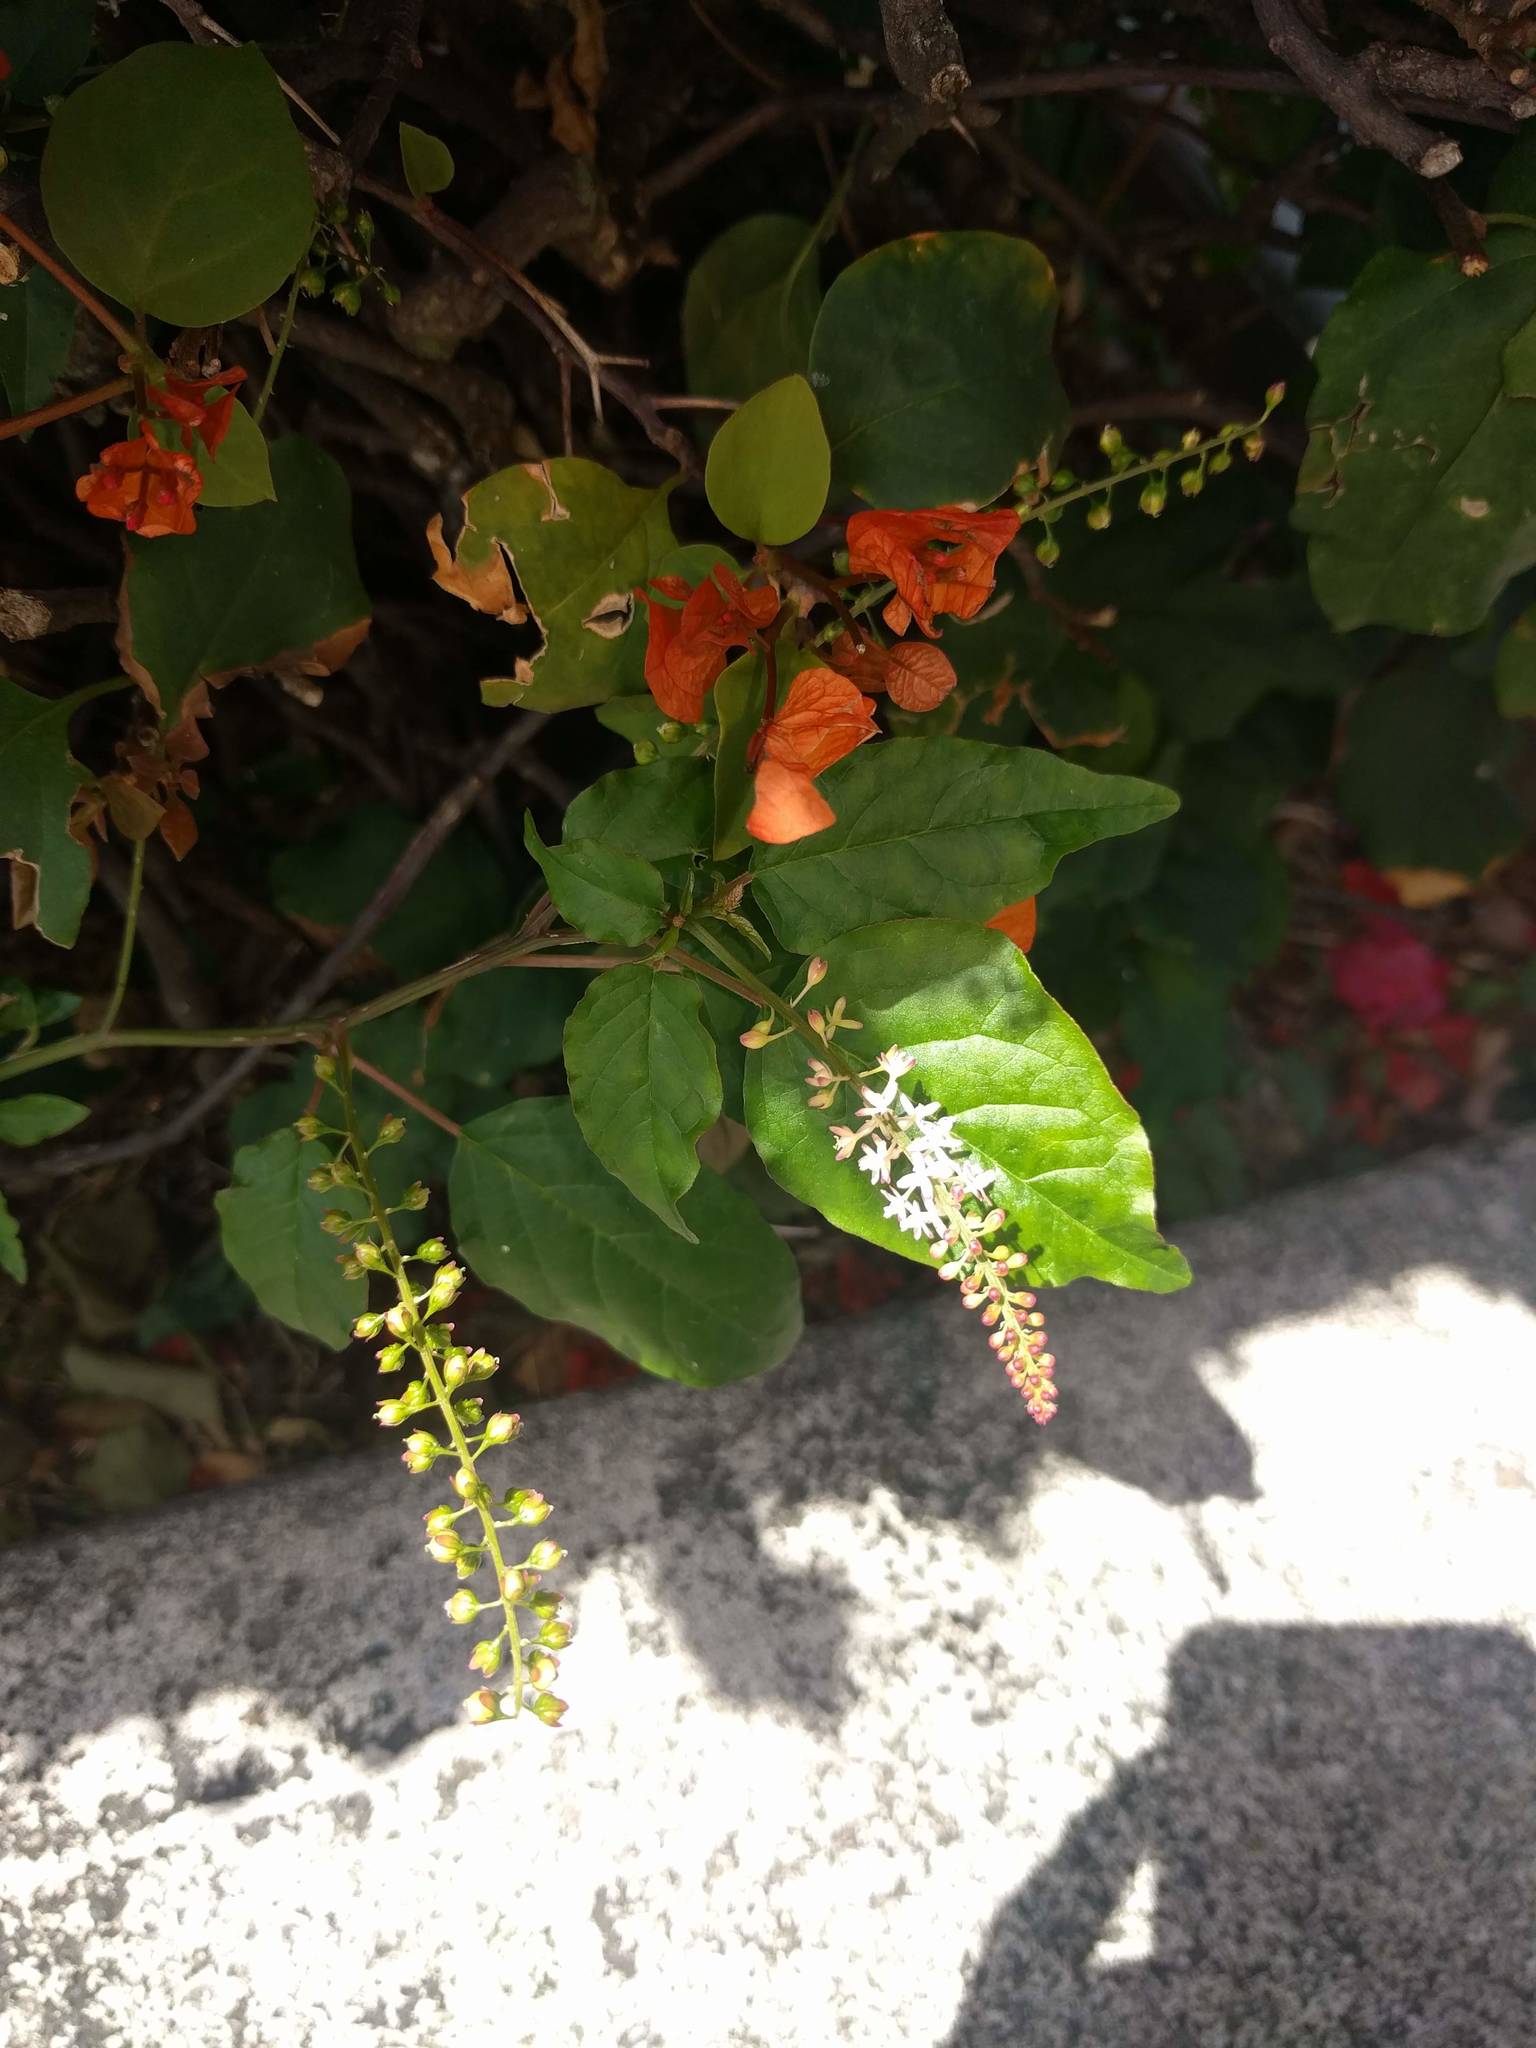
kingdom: Plantae
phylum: Tracheophyta
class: Magnoliopsida
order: Caryophyllales
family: Phytolaccaceae
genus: Rivina
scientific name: Rivina humilis
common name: Rougeplant
